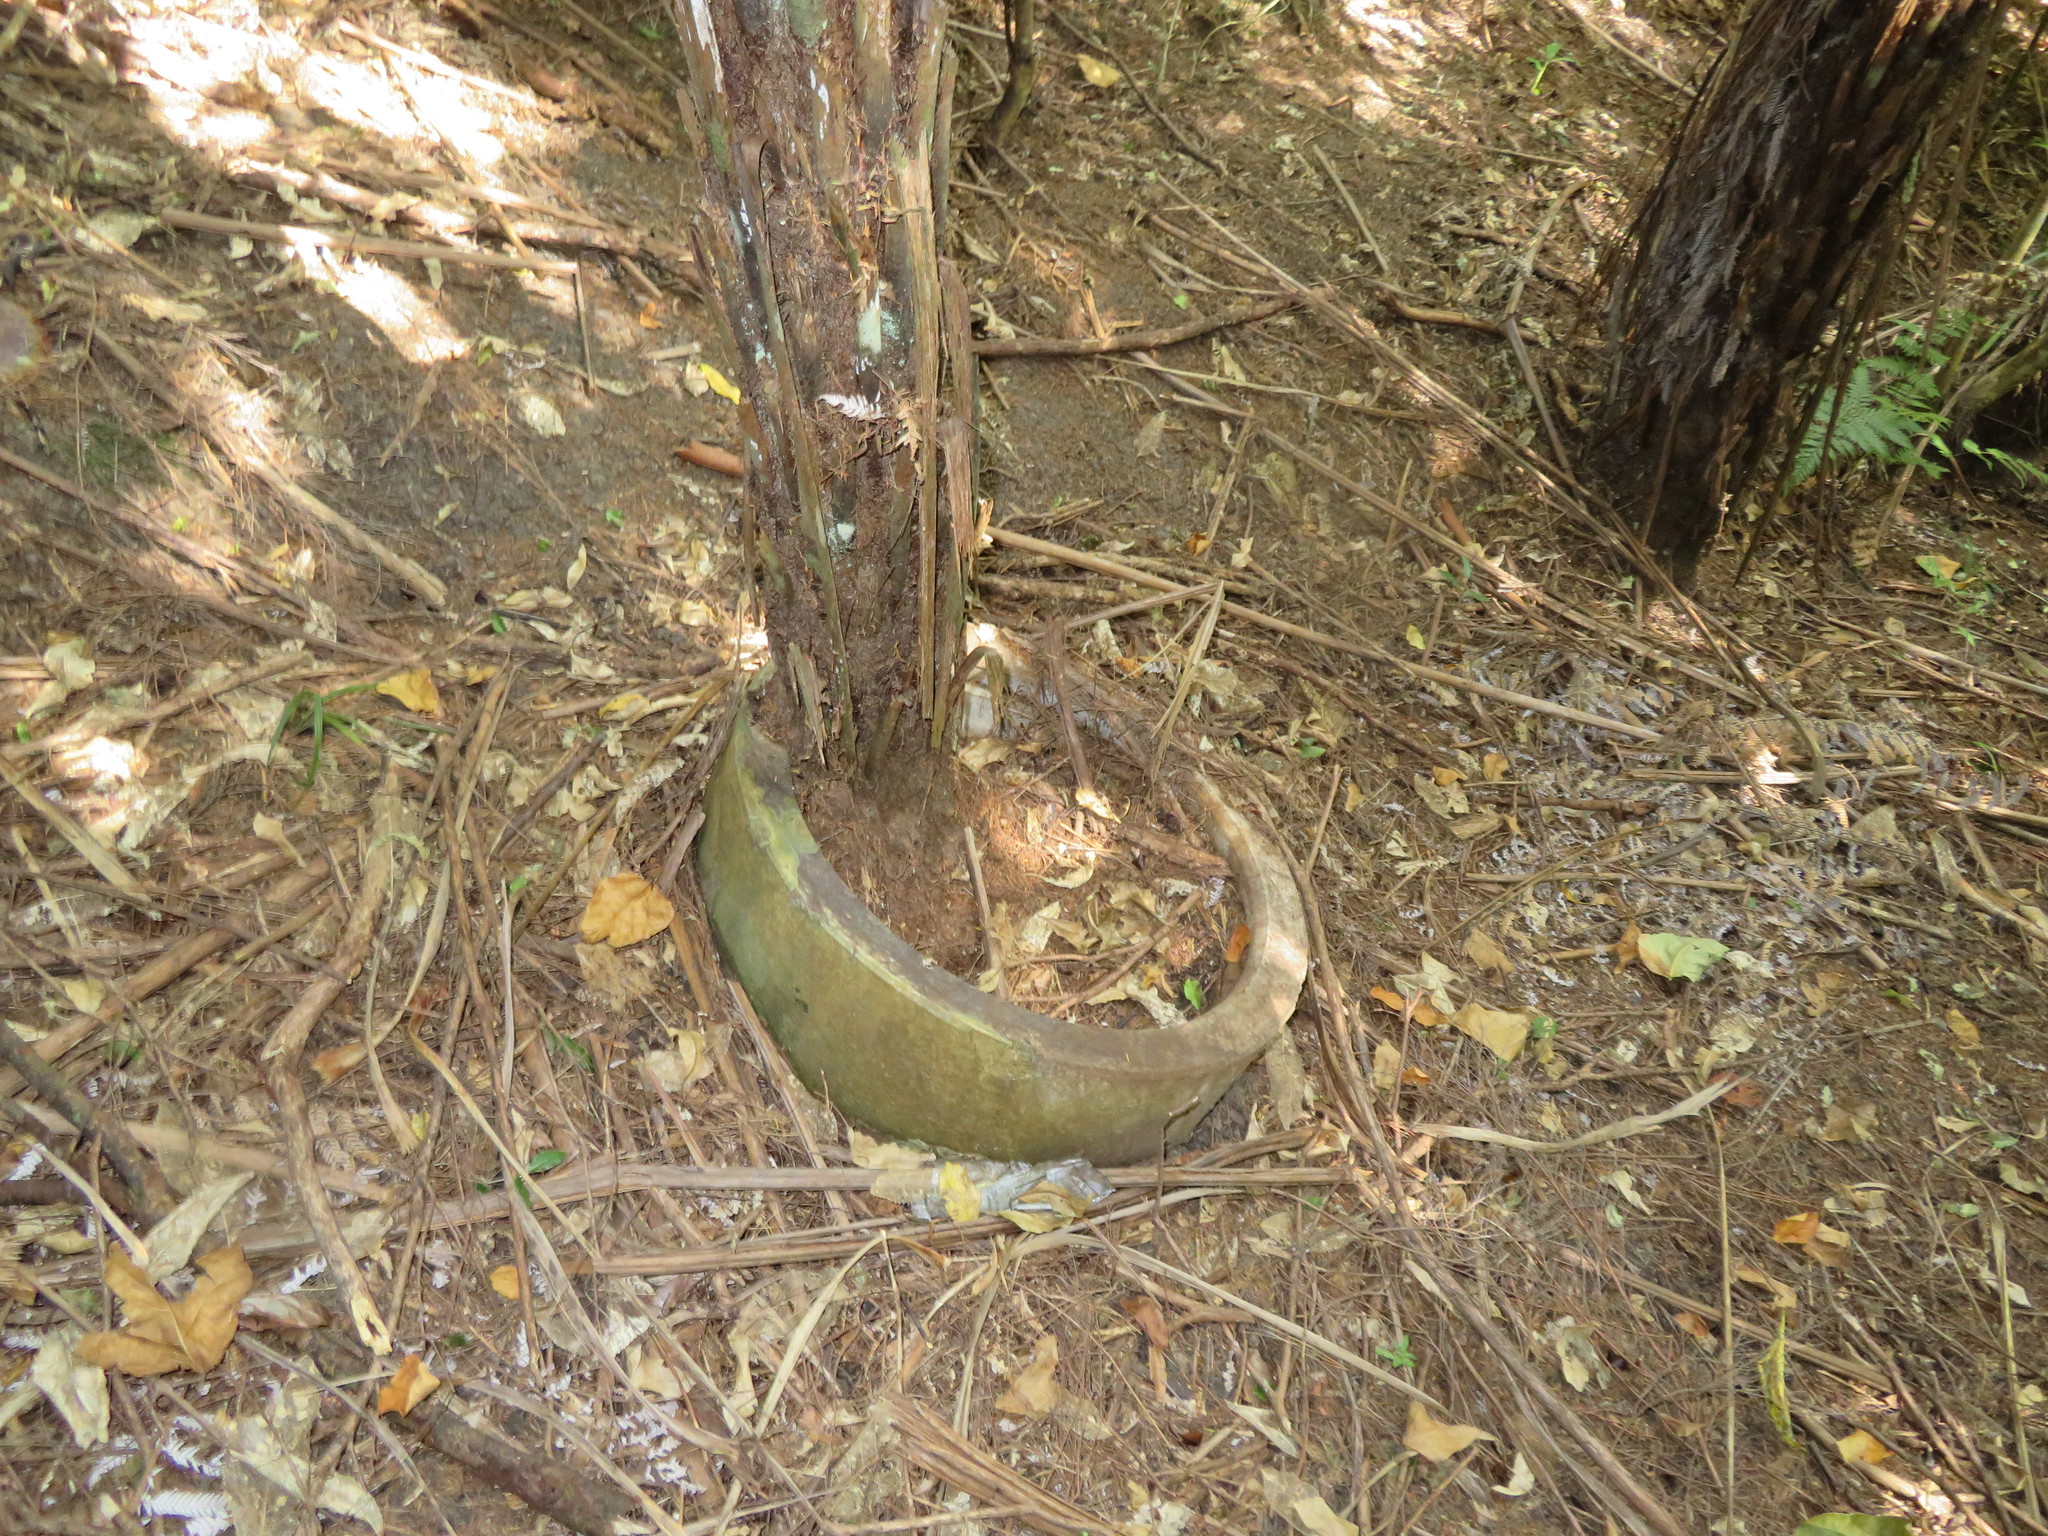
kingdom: Plantae
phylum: Tracheophyta
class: Polypodiopsida
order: Cyatheales
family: Cyatheaceae
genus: Alsophila
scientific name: Alsophila dealbata
